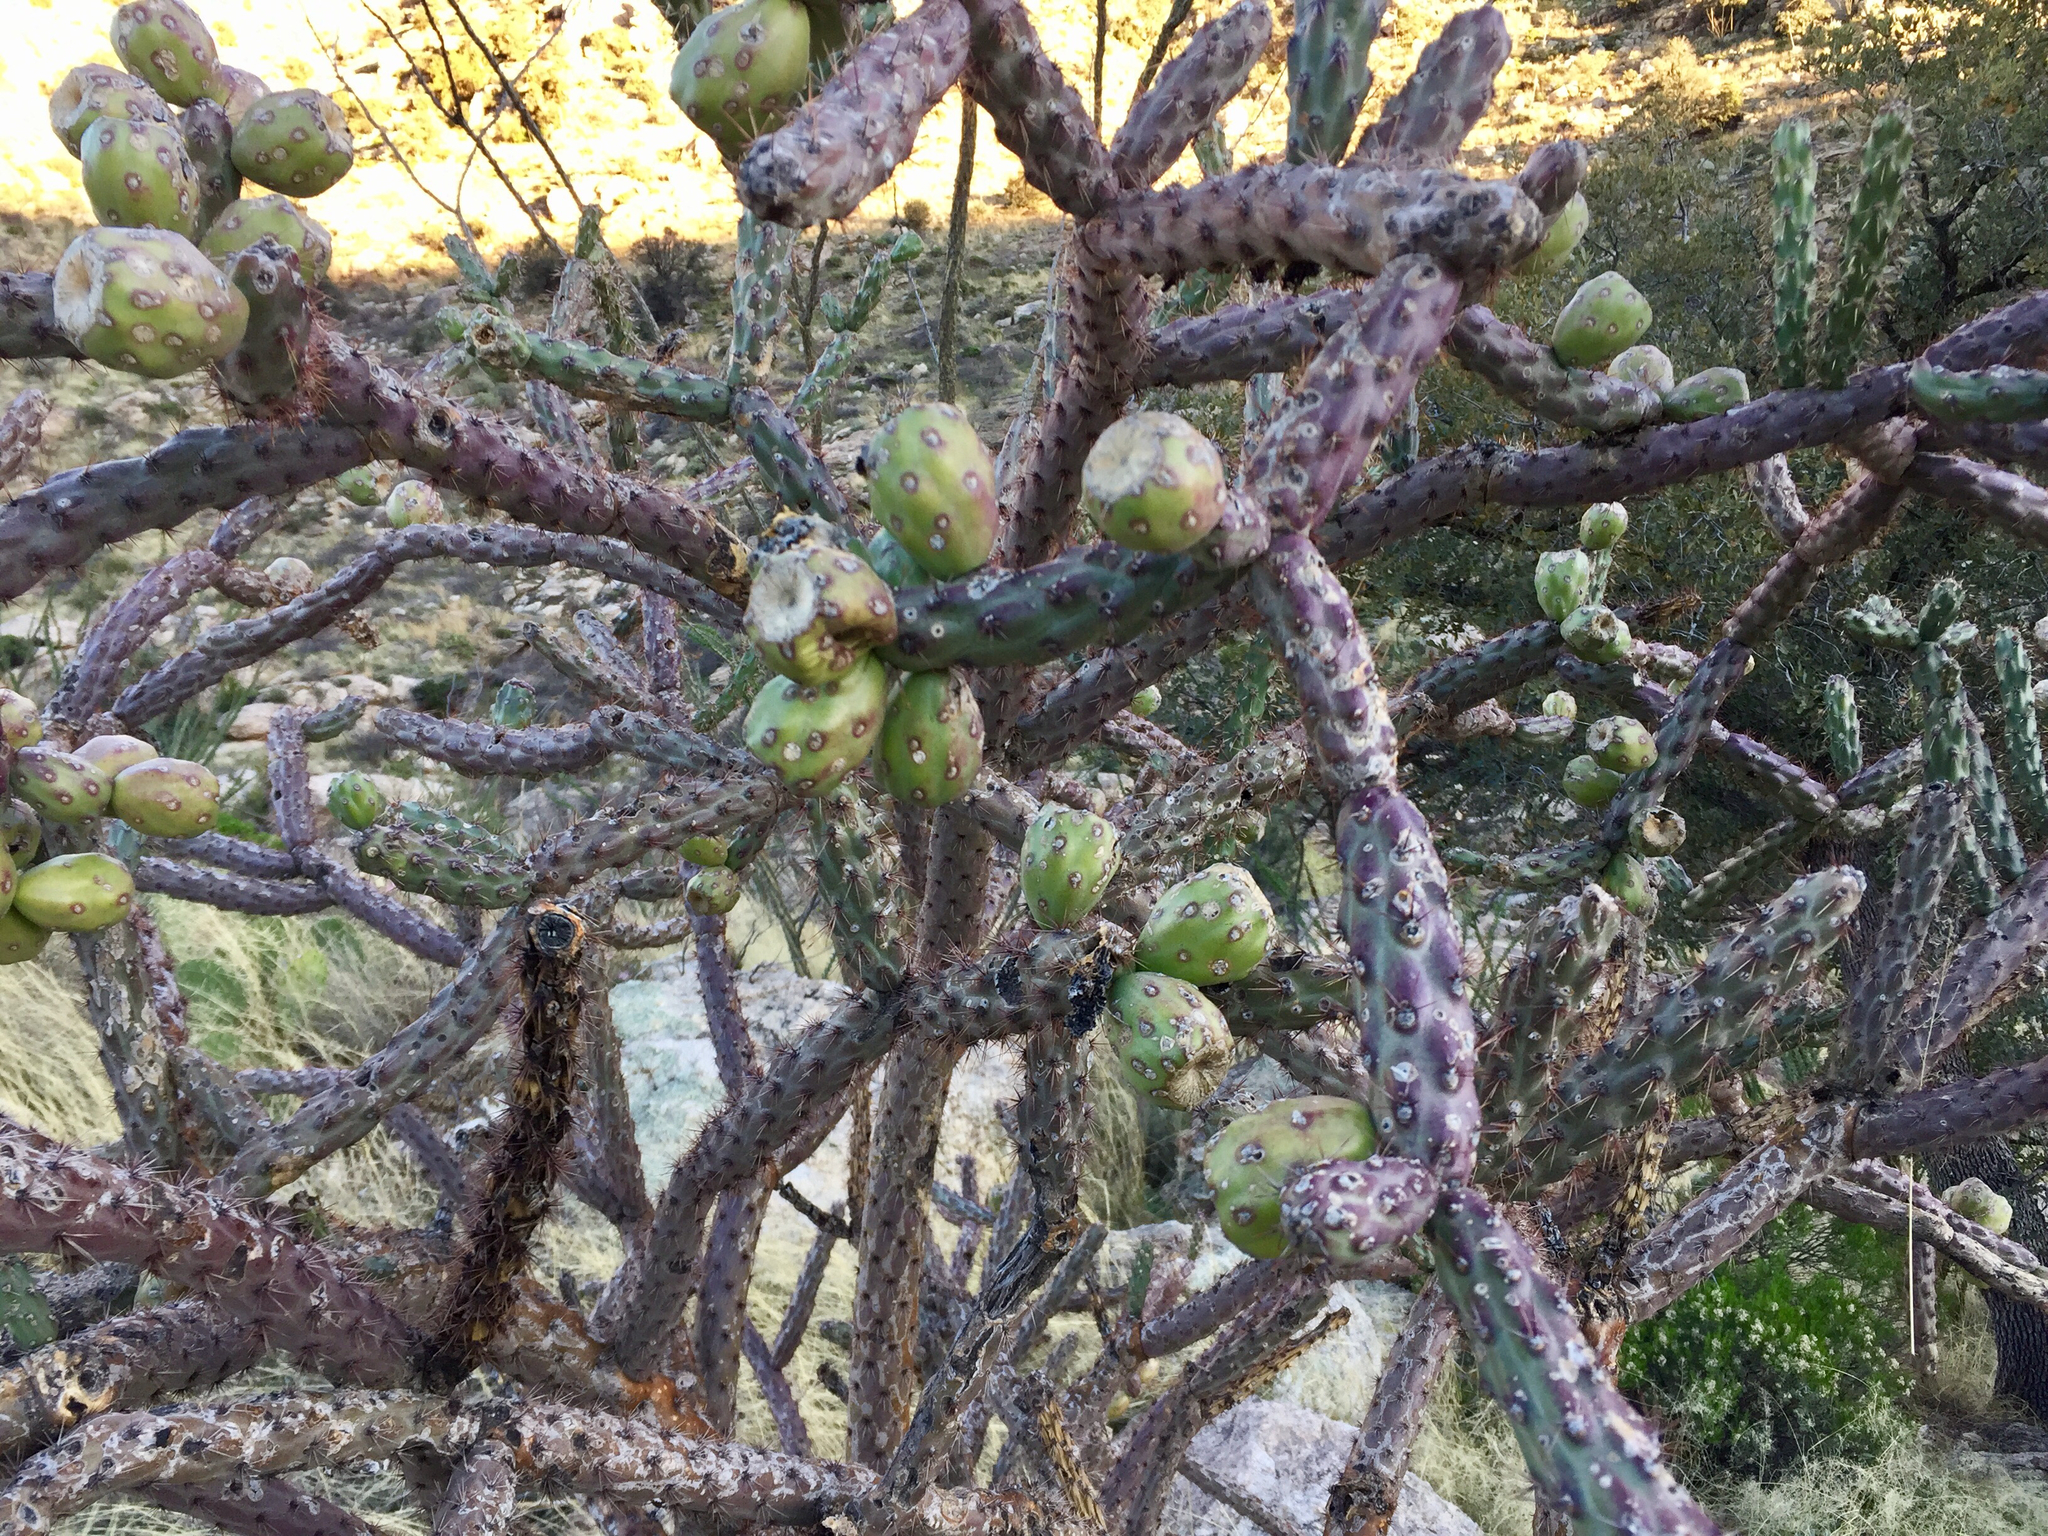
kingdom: Plantae
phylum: Tracheophyta
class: Magnoliopsida
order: Caryophyllales
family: Cactaceae
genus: Cylindropuntia
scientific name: Cylindropuntia thurberi
